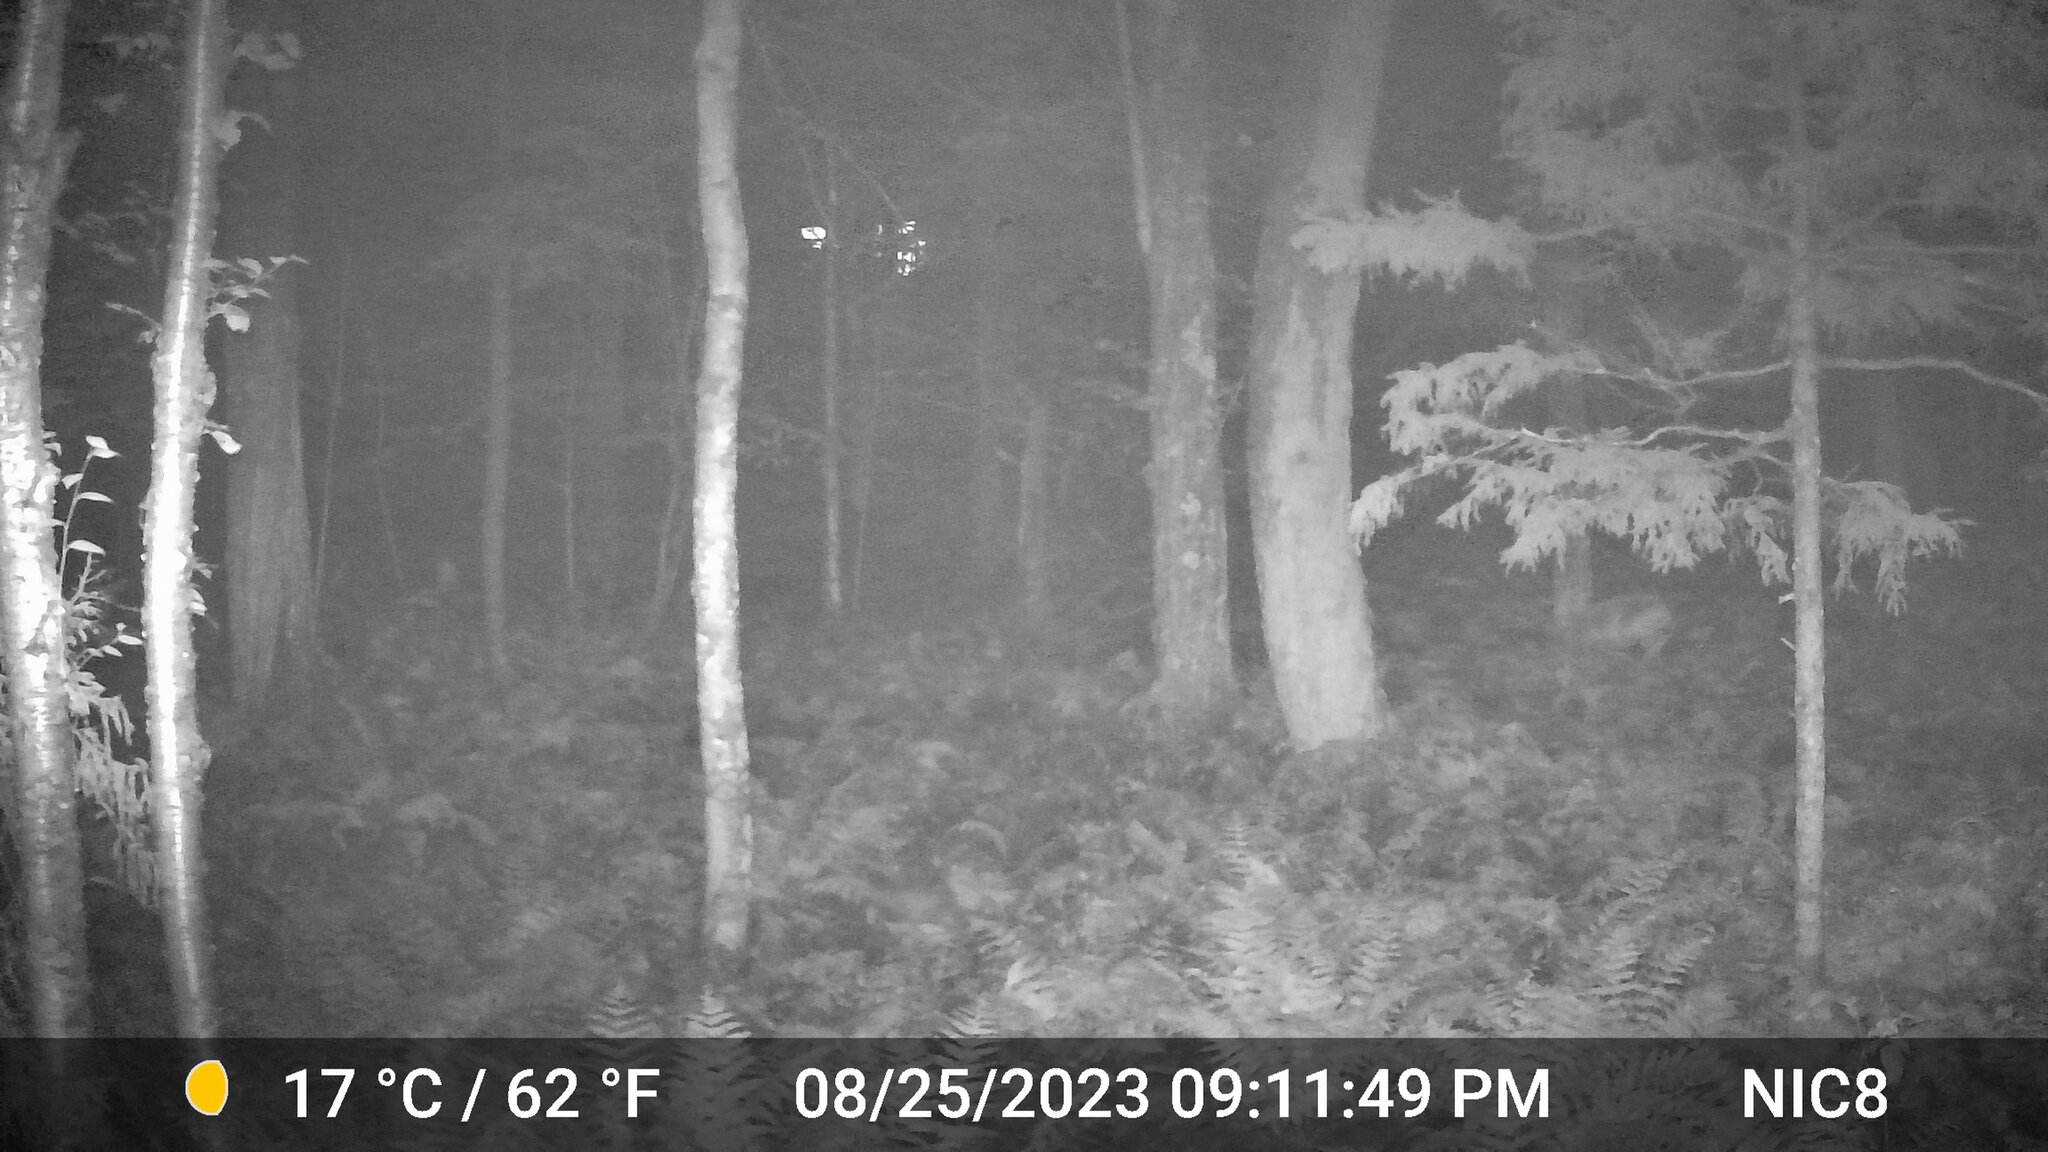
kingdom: Animalia
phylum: Chordata
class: Mammalia
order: Artiodactyla
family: Cervidae
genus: Odocoileus
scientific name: Odocoileus virginianus
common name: White-tailed deer
